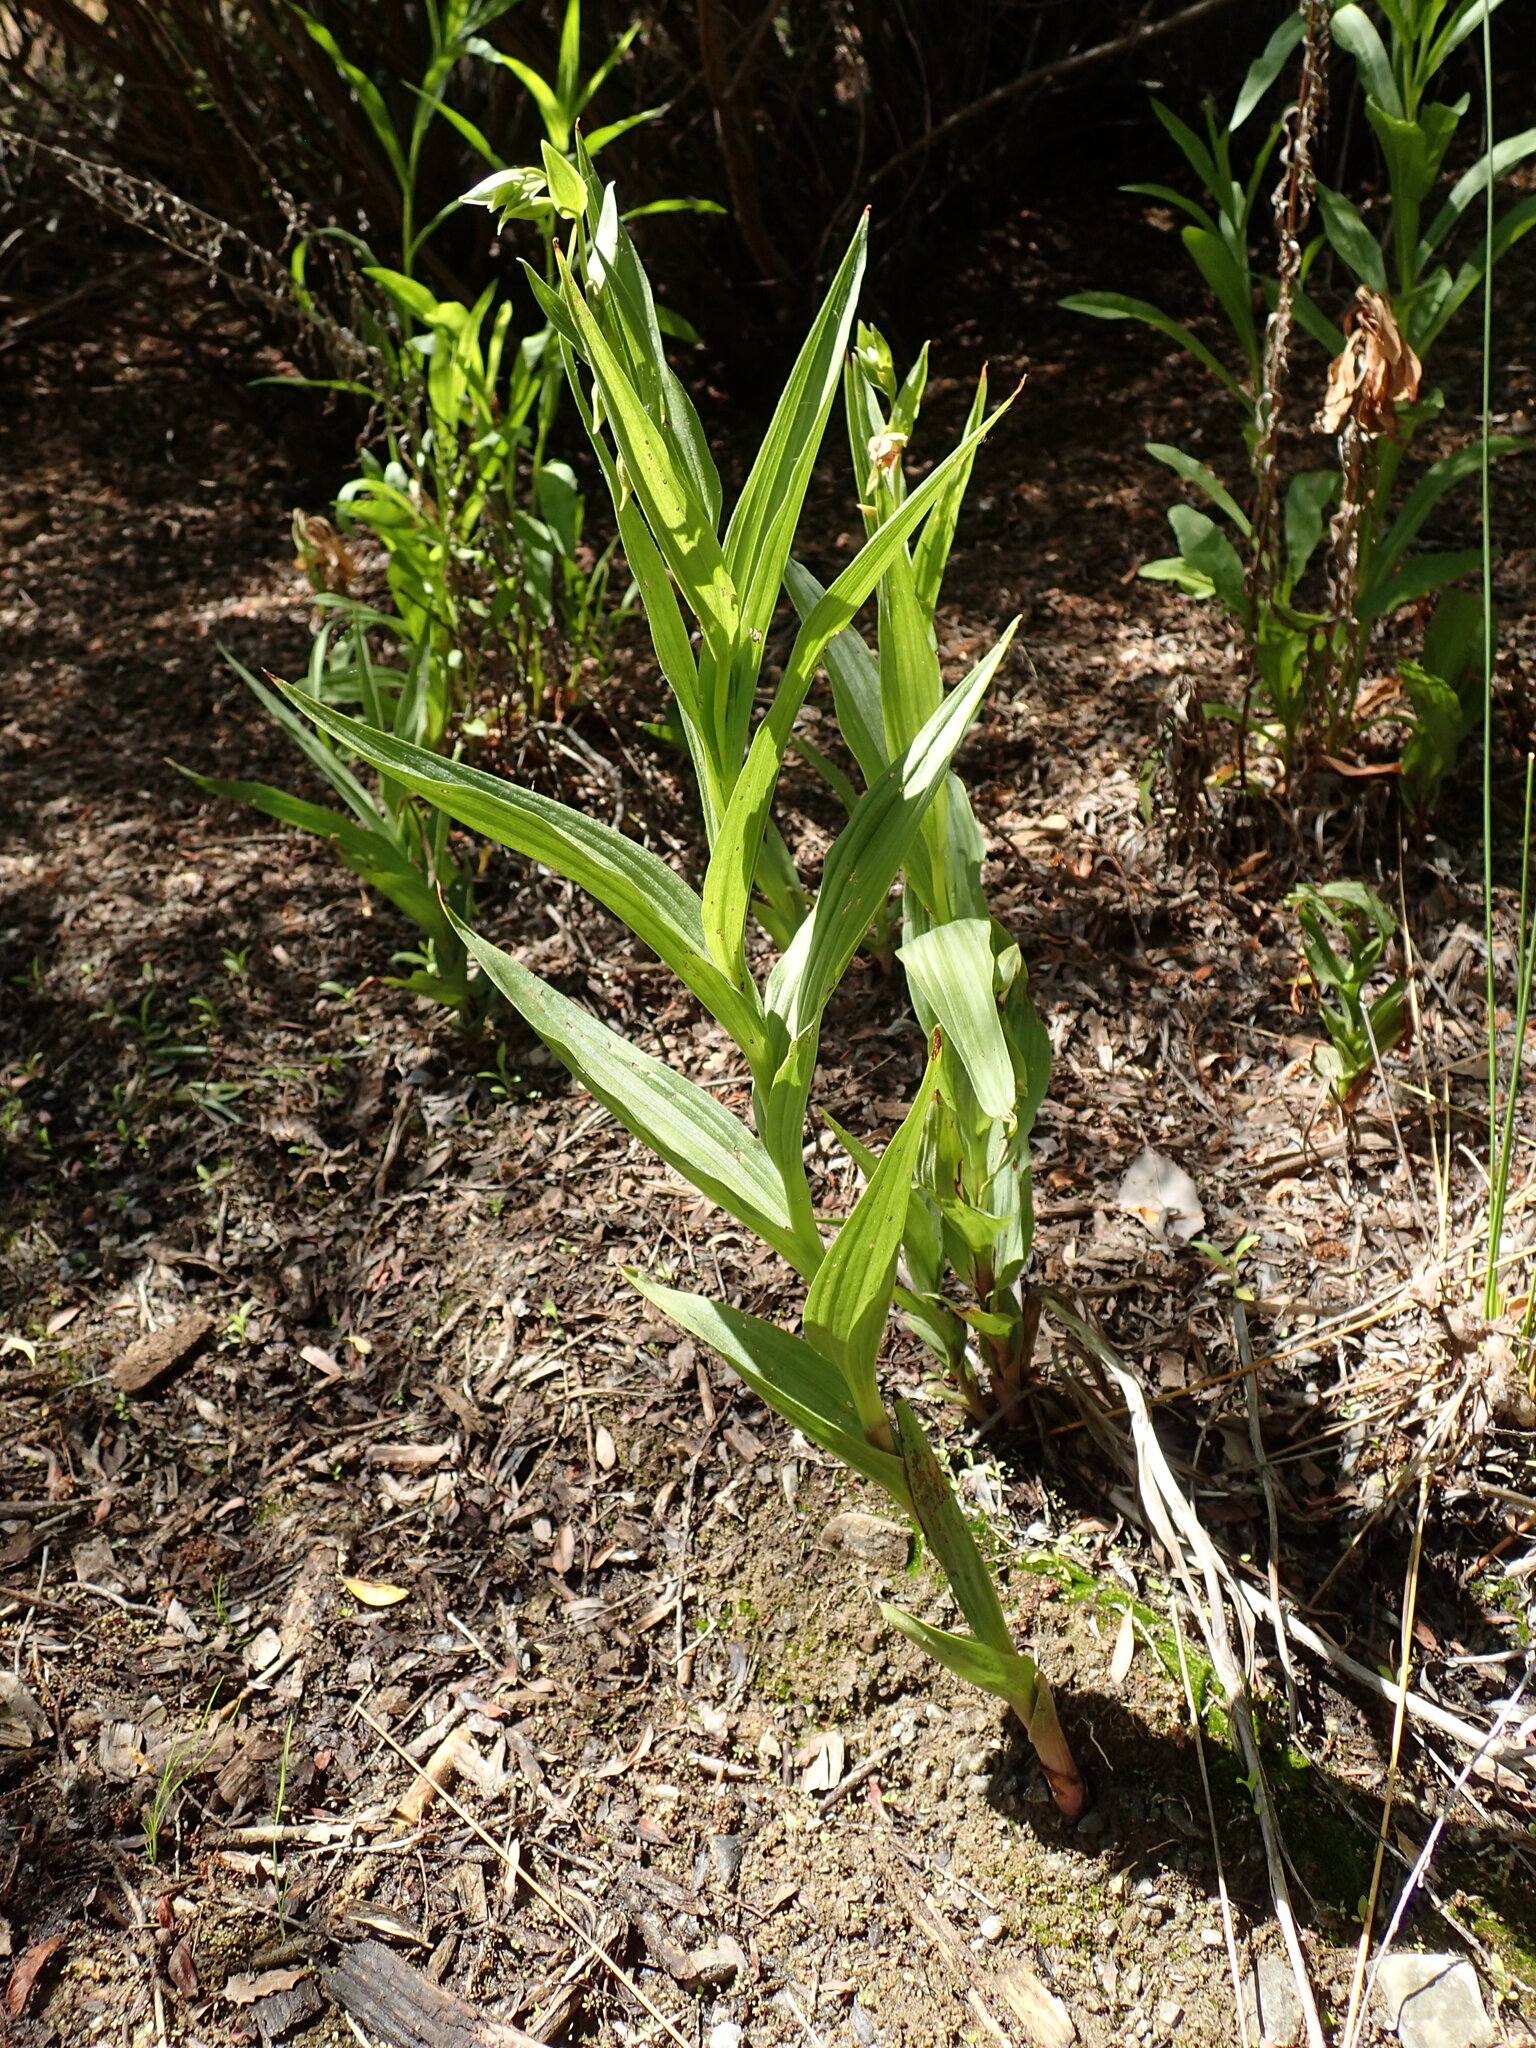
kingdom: Plantae
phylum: Tracheophyta
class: Liliopsida
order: Asparagales
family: Orchidaceae
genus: Epipactis
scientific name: Epipactis gigantea
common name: Chatterbox
